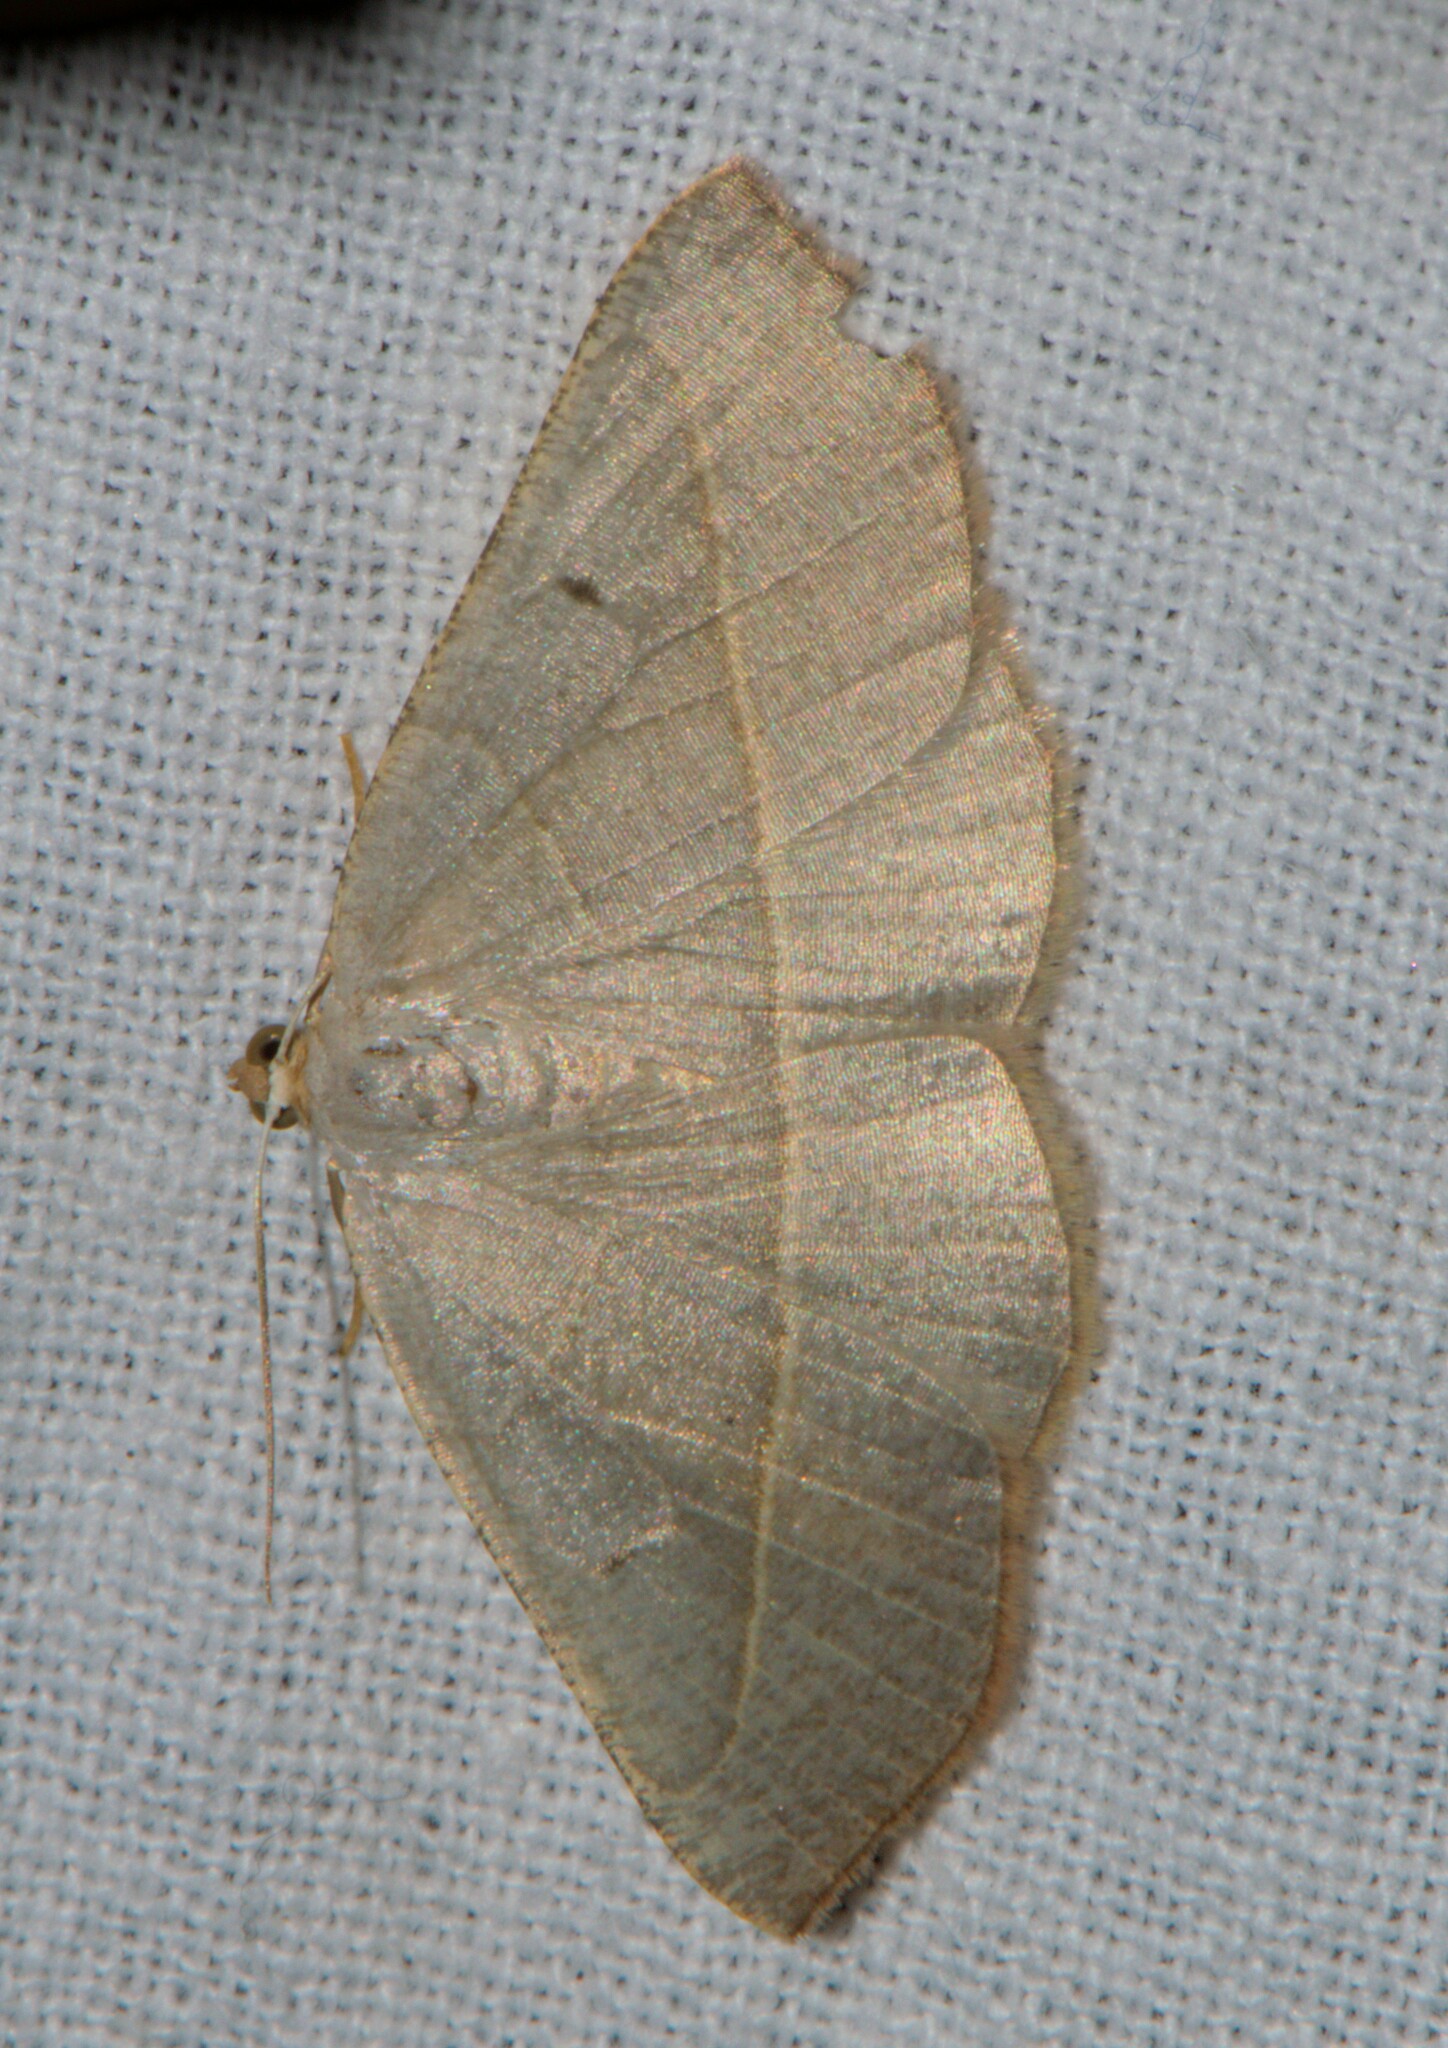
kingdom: Animalia
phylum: Arthropoda
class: Insecta
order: Lepidoptera
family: Geometridae
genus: Nothomiza
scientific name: Nothomiza achromaria
